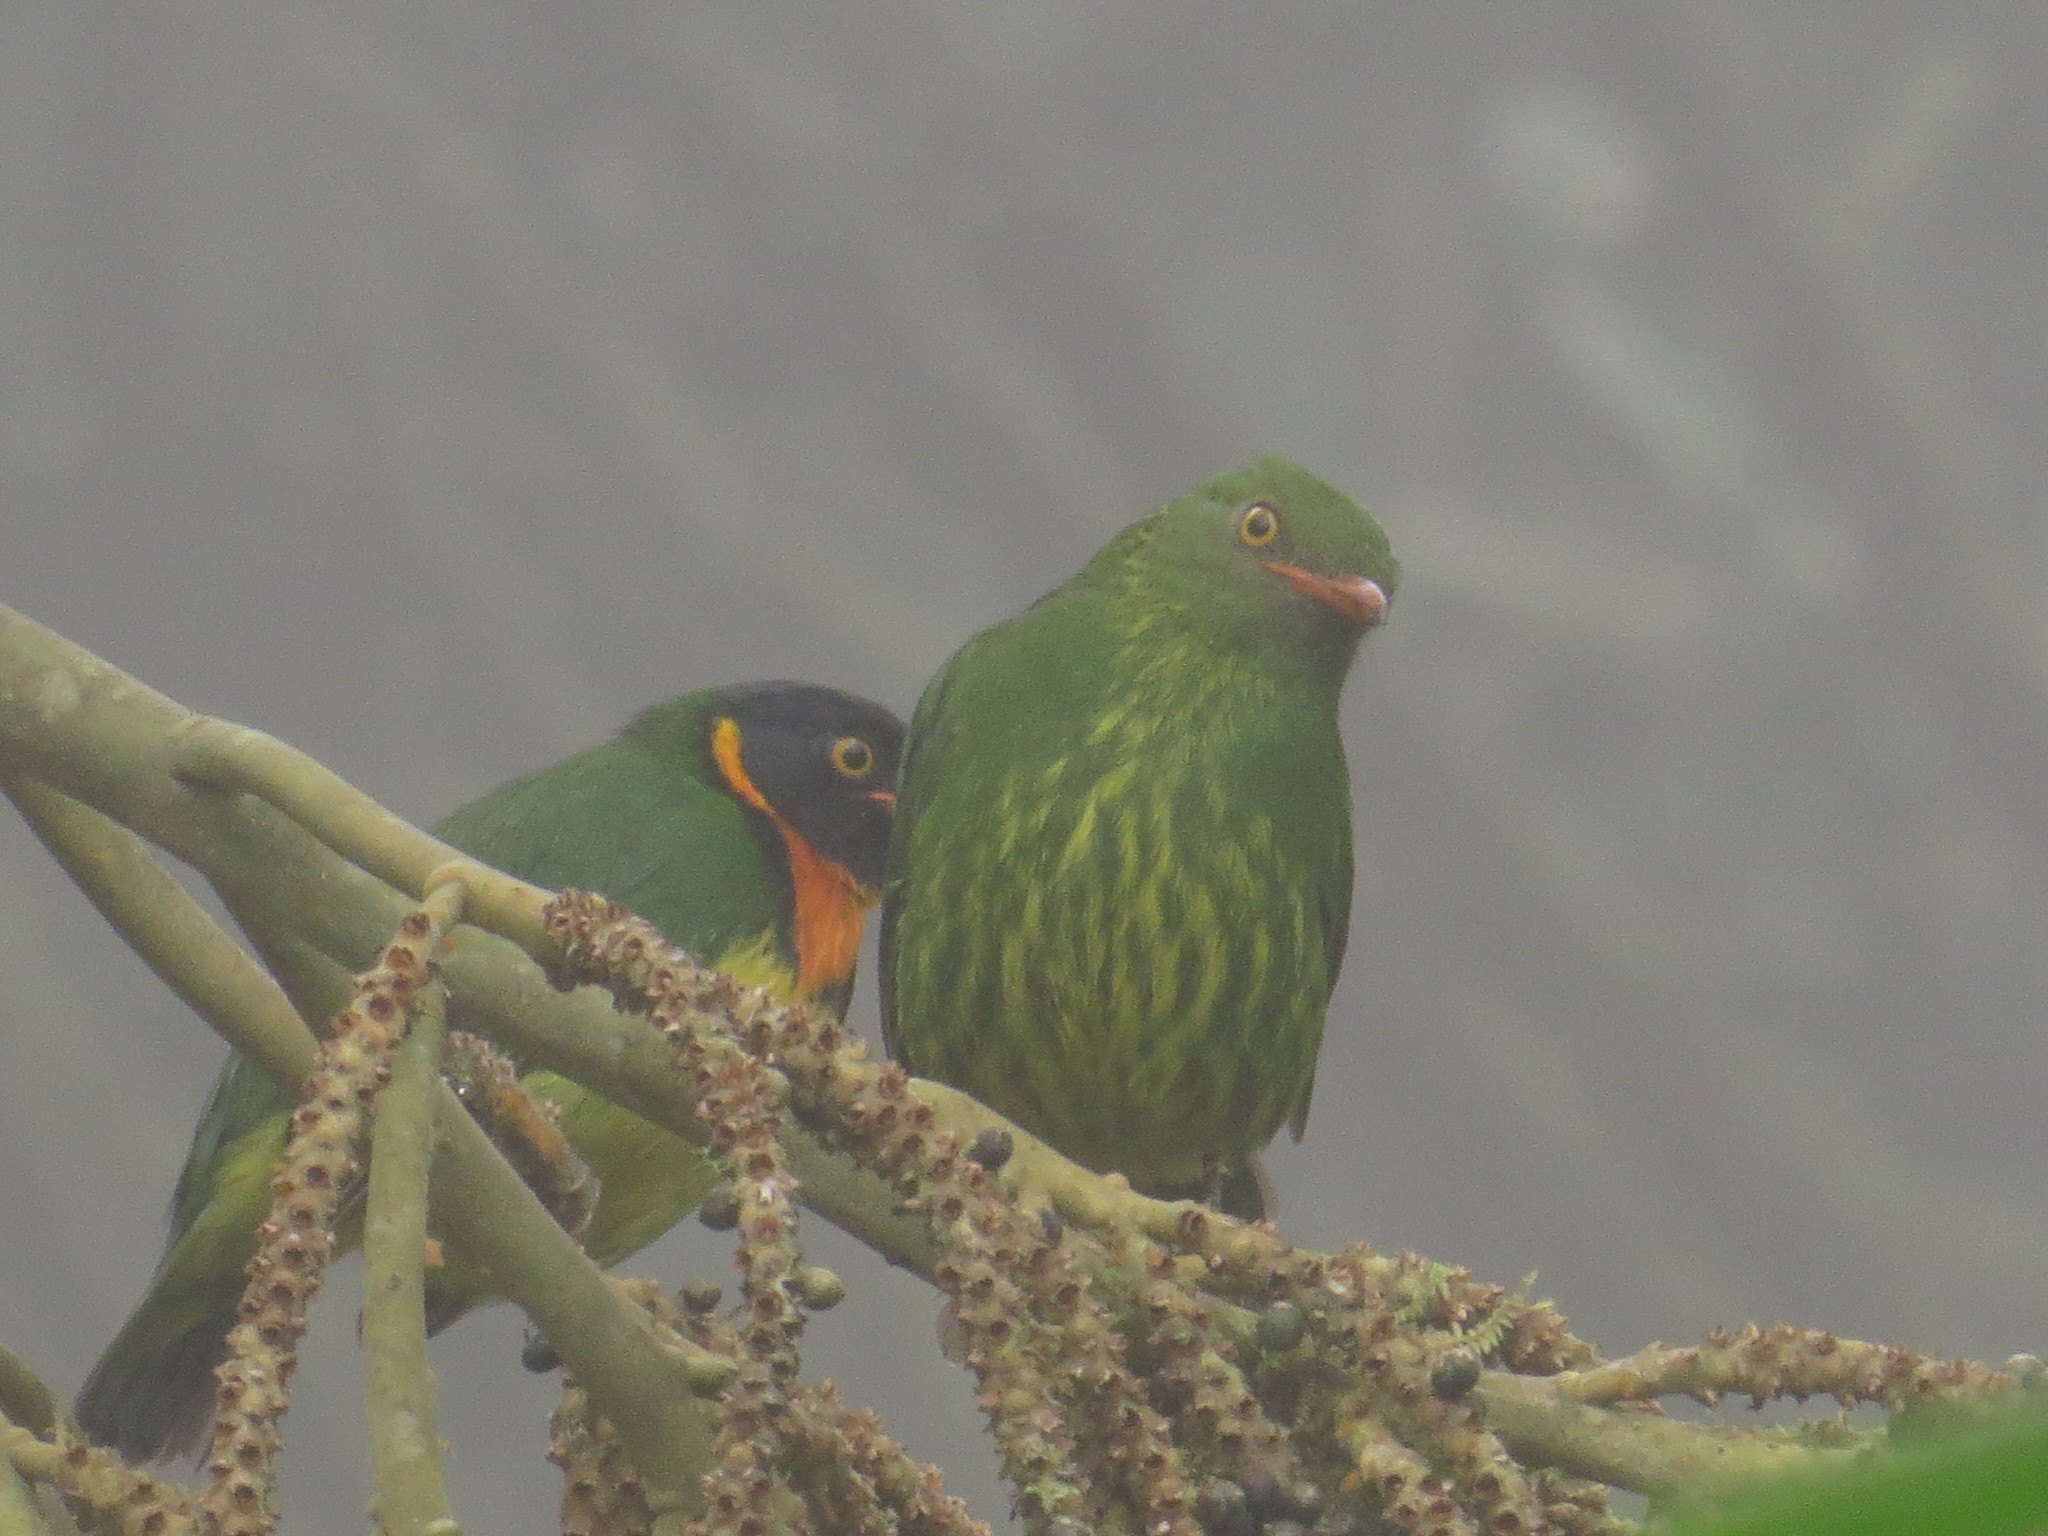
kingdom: Animalia
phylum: Chordata
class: Aves
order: Passeriformes
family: Cotingidae
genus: Pipreola
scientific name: Pipreola jucunda
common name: Orange-breasted fruiteater
